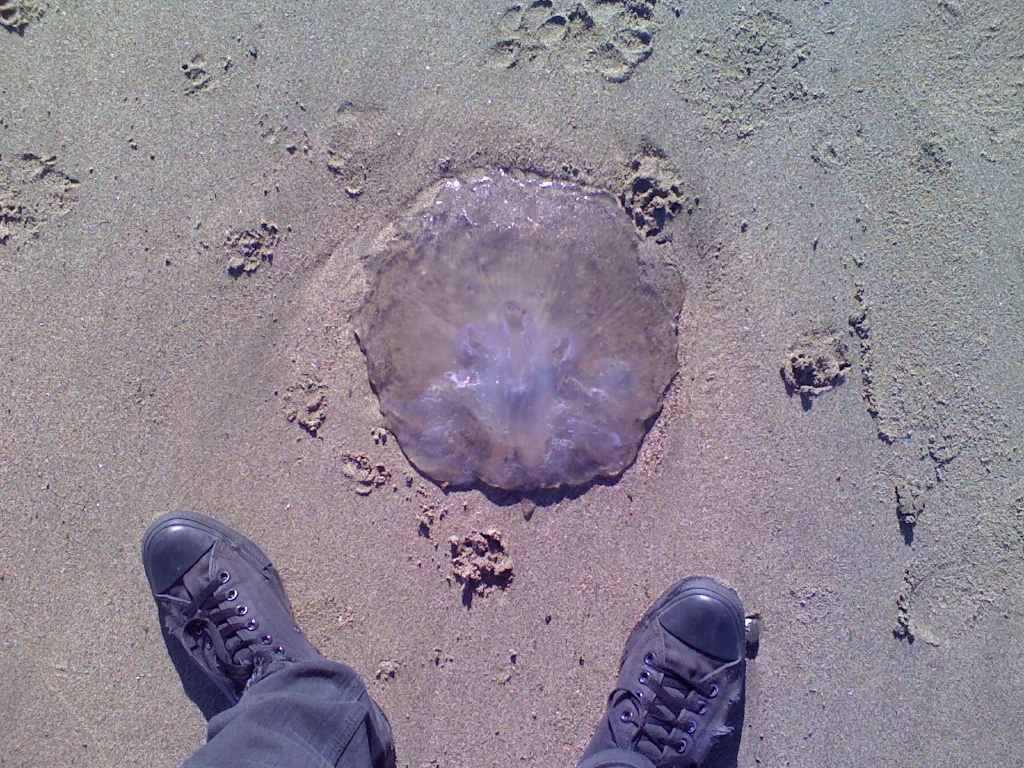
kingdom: Animalia
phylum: Cnidaria
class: Scyphozoa
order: Semaeostomeae
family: Ulmaridae
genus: Aurelia
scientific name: Aurelia labiata
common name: Pacific moon jelly
